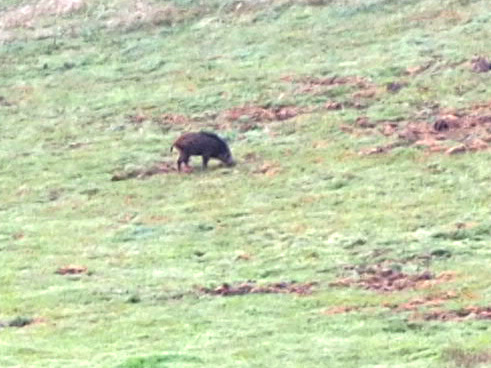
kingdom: Animalia
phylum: Chordata
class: Mammalia
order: Artiodactyla
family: Suidae
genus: Sus
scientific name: Sus scrofa
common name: Wild boar
